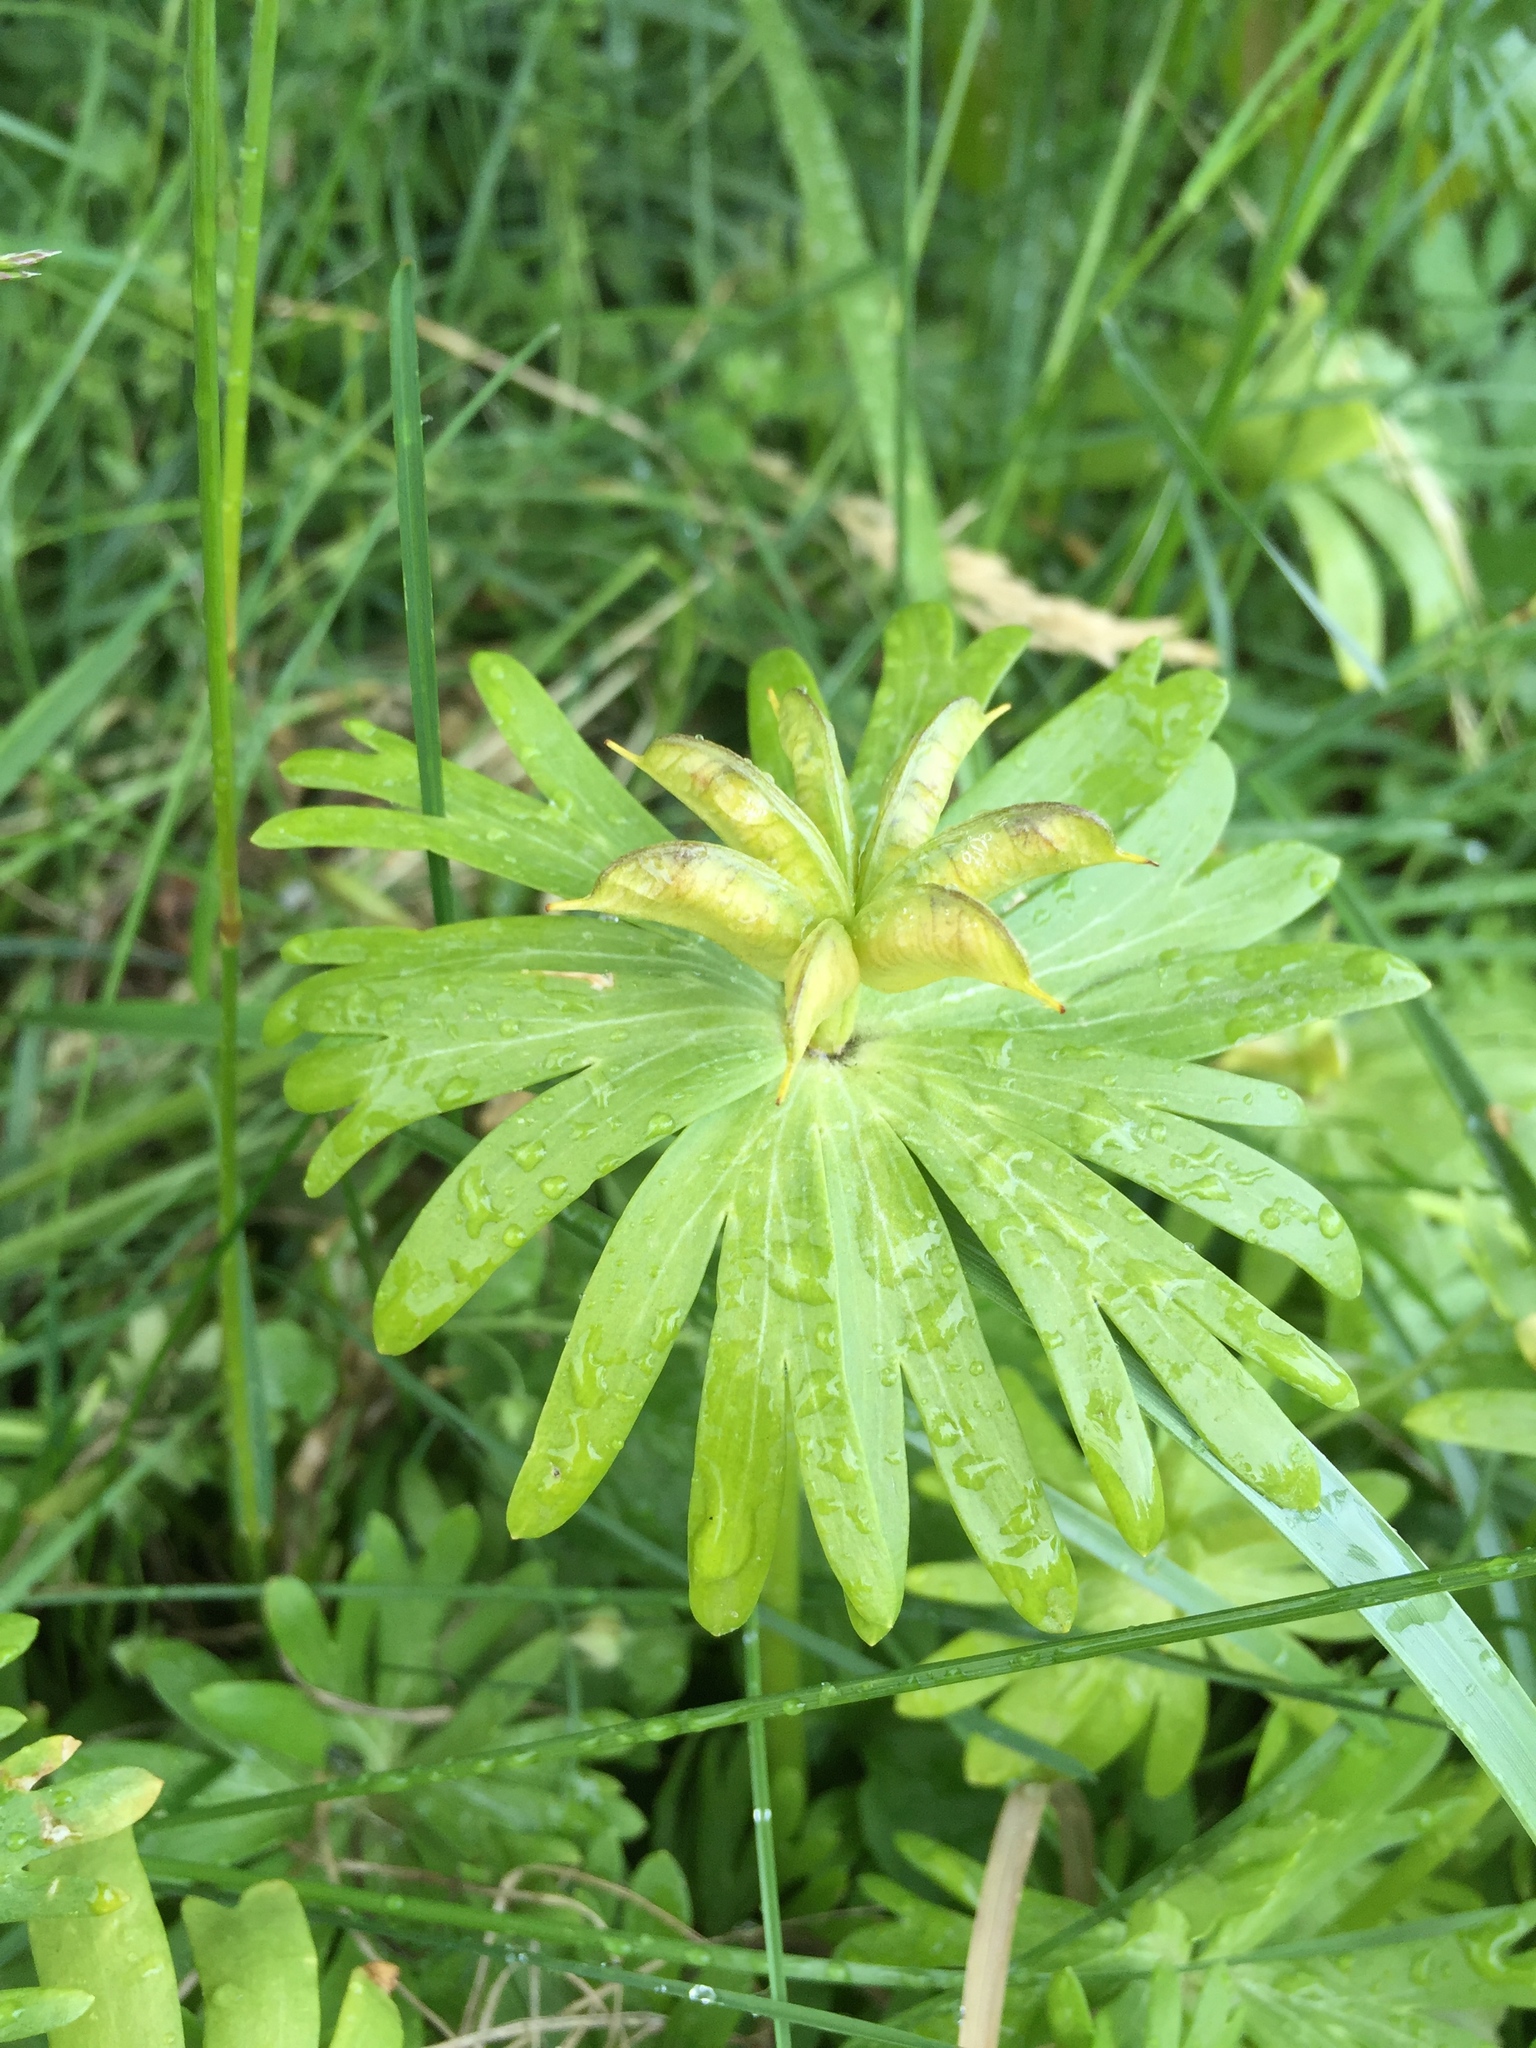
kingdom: Plantae
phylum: Tracheophyta
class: Magnoliopsida
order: Ranunculales
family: Ranunculaceae
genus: Eranthis
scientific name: Eranthis hyemalis
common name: Winter aconite
